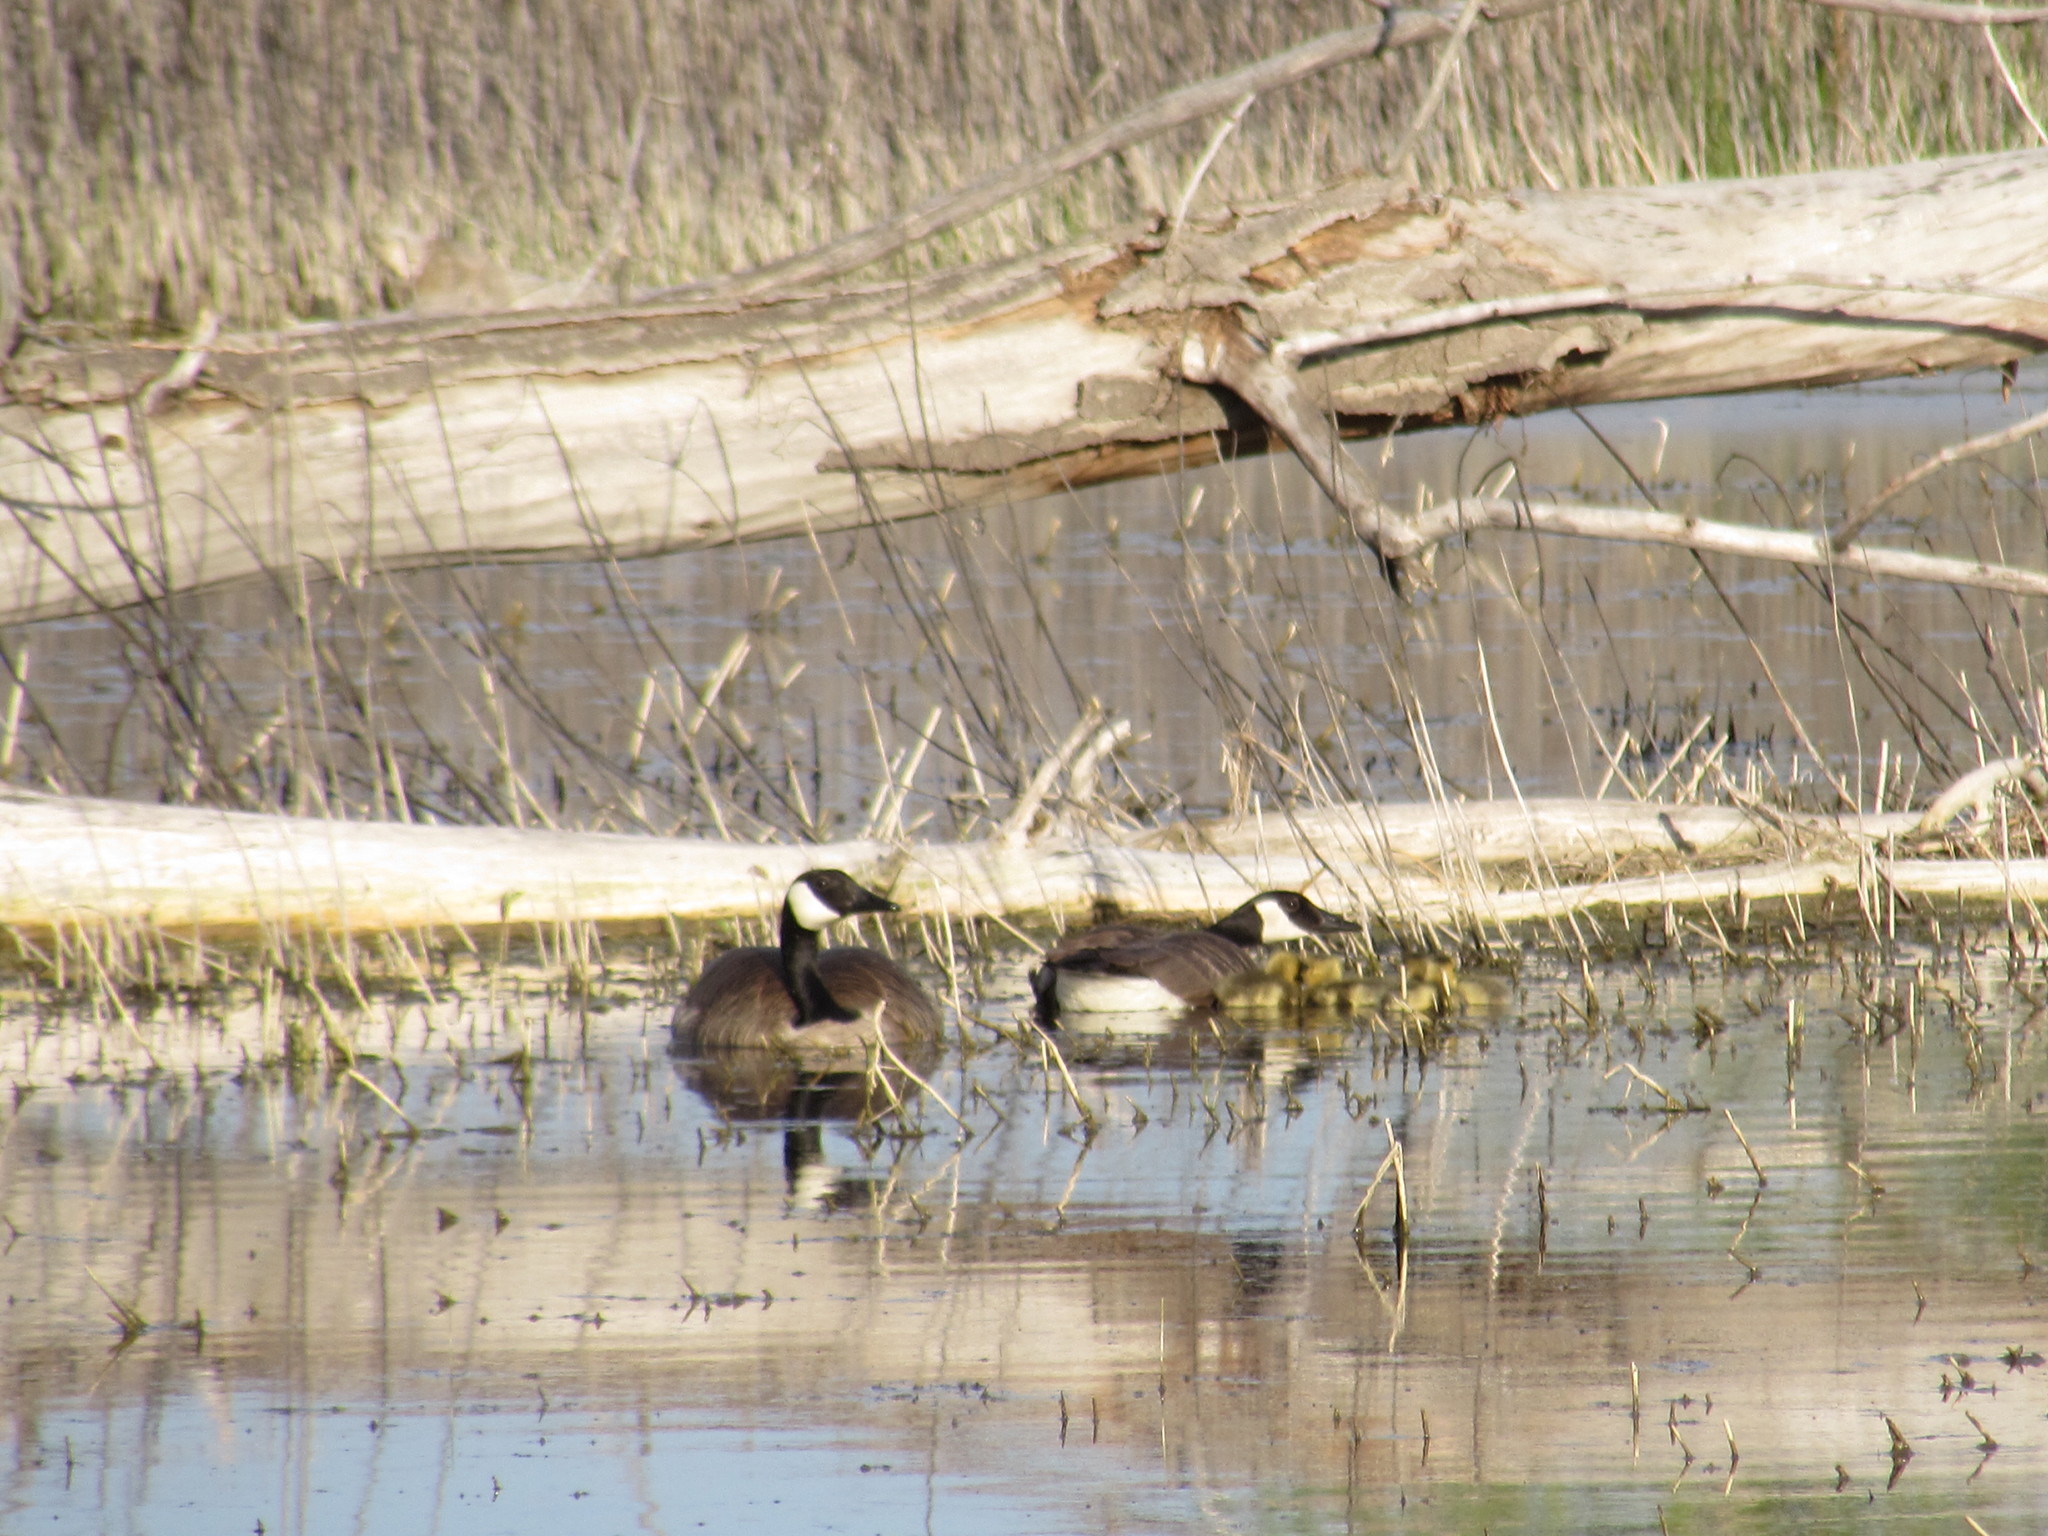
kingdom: Animalia
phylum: Chordata
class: Aves
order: Anseriformes
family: Anatidae
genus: Branta
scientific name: Branta canadensis
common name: Canada goose
